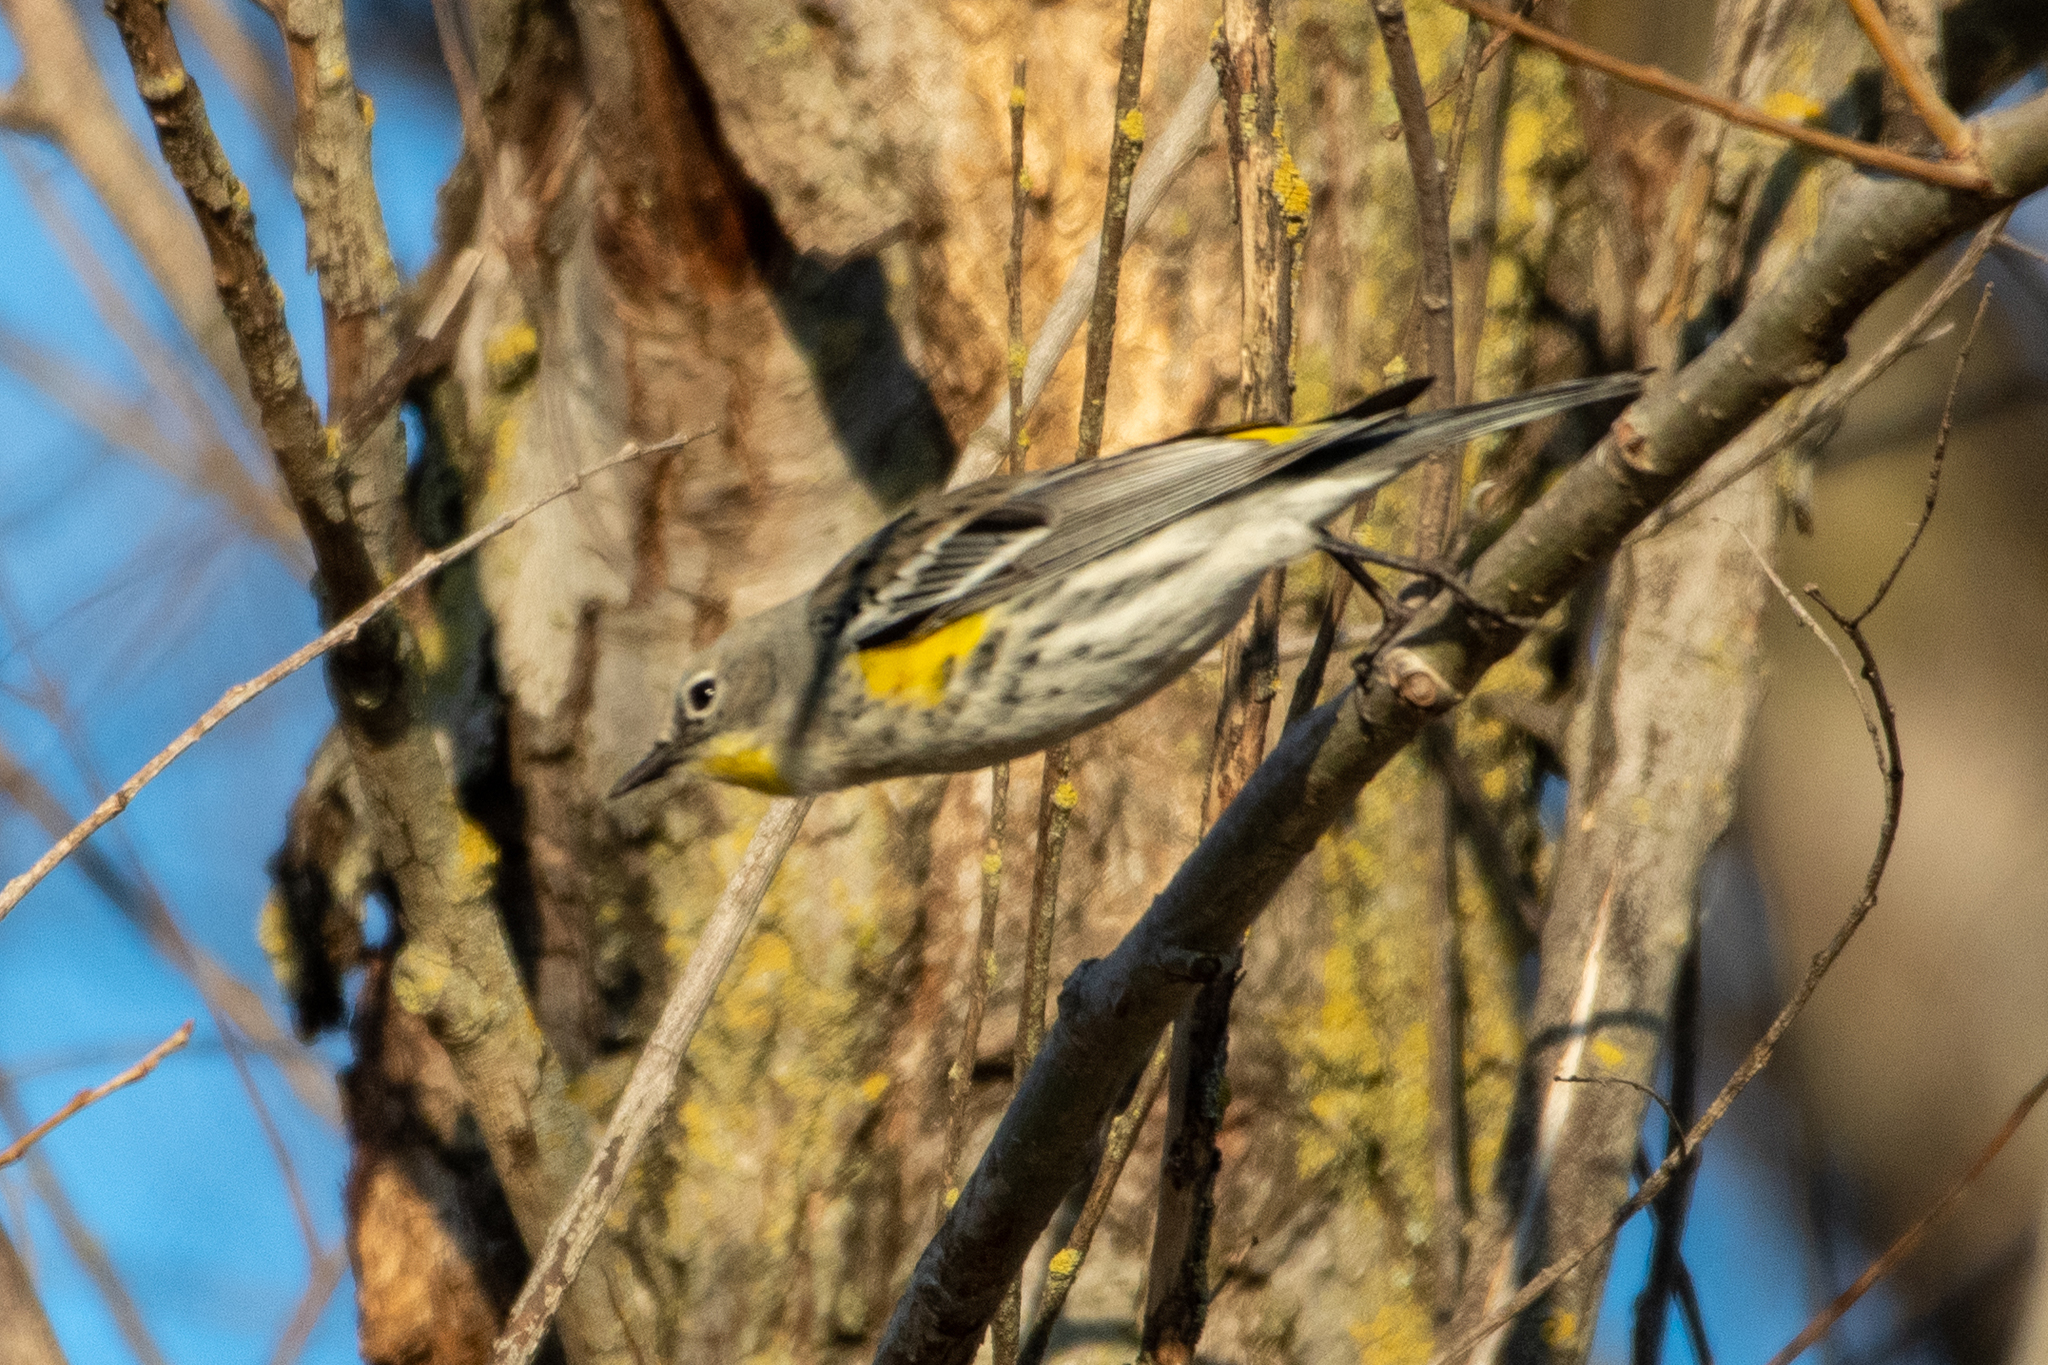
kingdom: Animalia
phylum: Chordata
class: Aves
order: Passeriformes
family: Parulidae
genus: Setophaga
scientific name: Setophaga coronata
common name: Myrtle warbler
